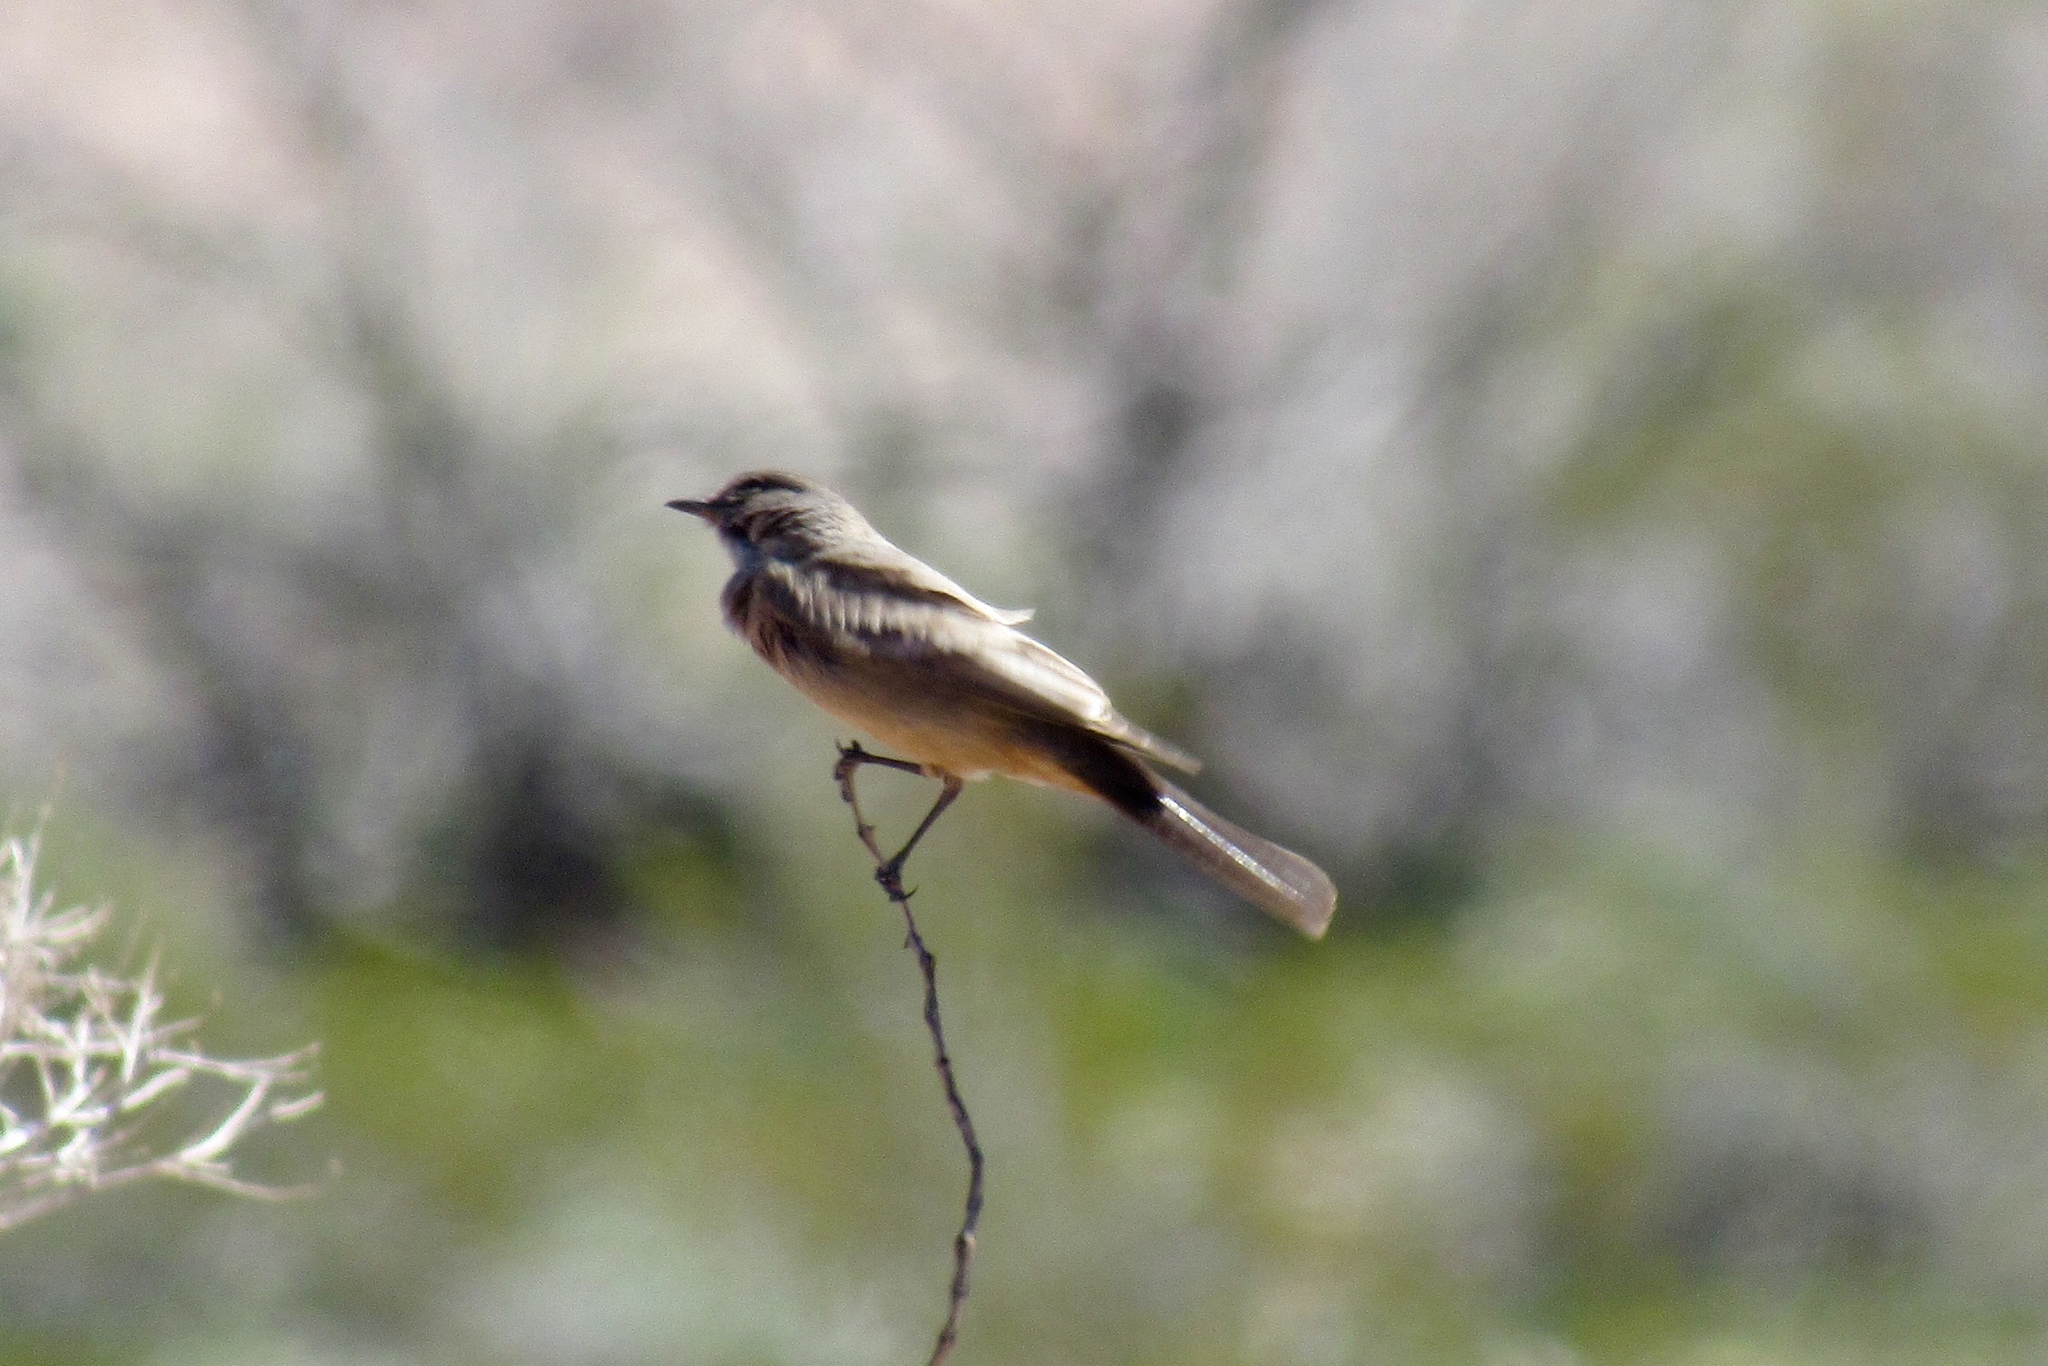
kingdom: Animalia
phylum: Chordata
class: Aves
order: Passeriformes
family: Tyrannidae
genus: Sayornis
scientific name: Sayornis saya
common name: Say's phoebe
